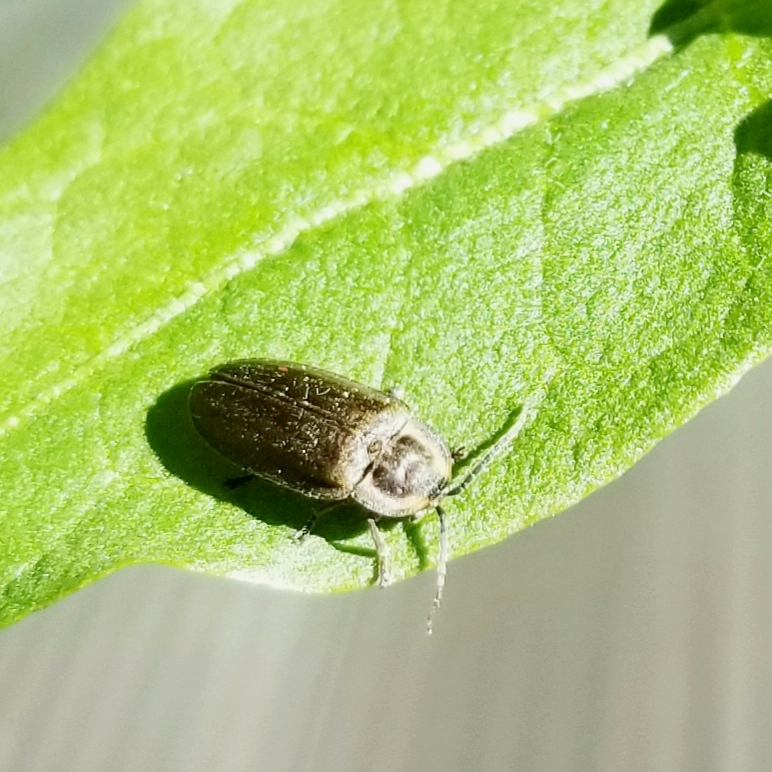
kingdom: Animalia
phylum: Arthropoda
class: Insecta
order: Coleoptera
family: Lampyridae
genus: Photinus
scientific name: Photinus corrusca
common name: Winter firefly
